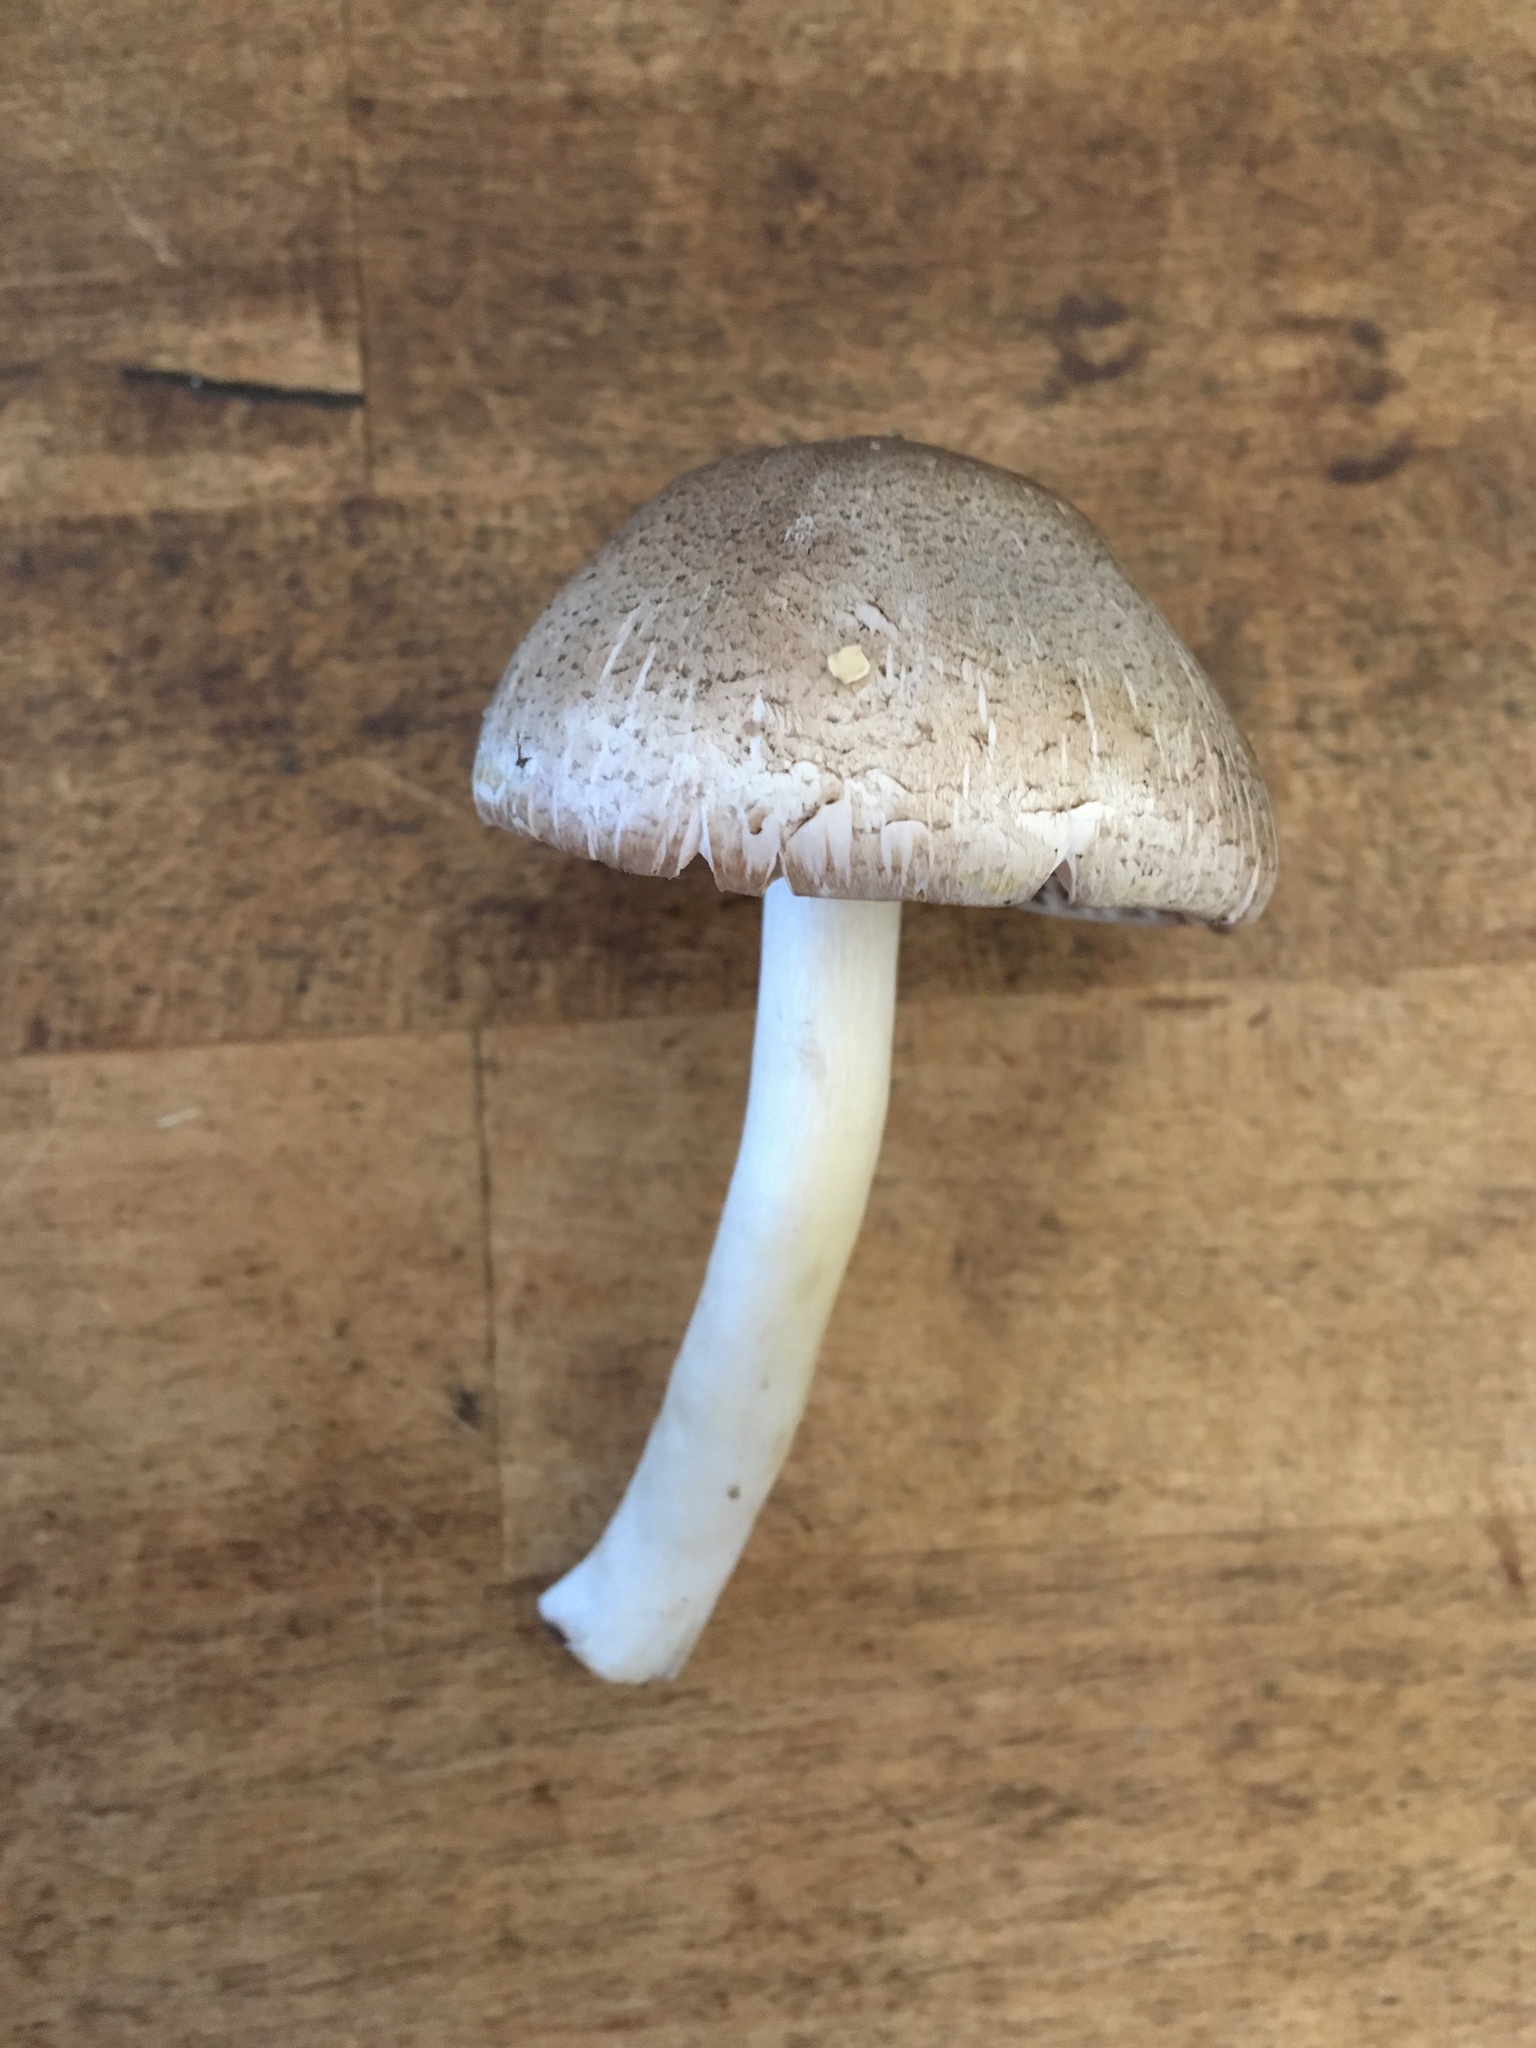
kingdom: Fungi
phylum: Basidiomycota
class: Agaricomycetes
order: Agaricales
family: Agaricaceae
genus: Agaricus
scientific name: Agaricus placomyces
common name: Inky mushroom
